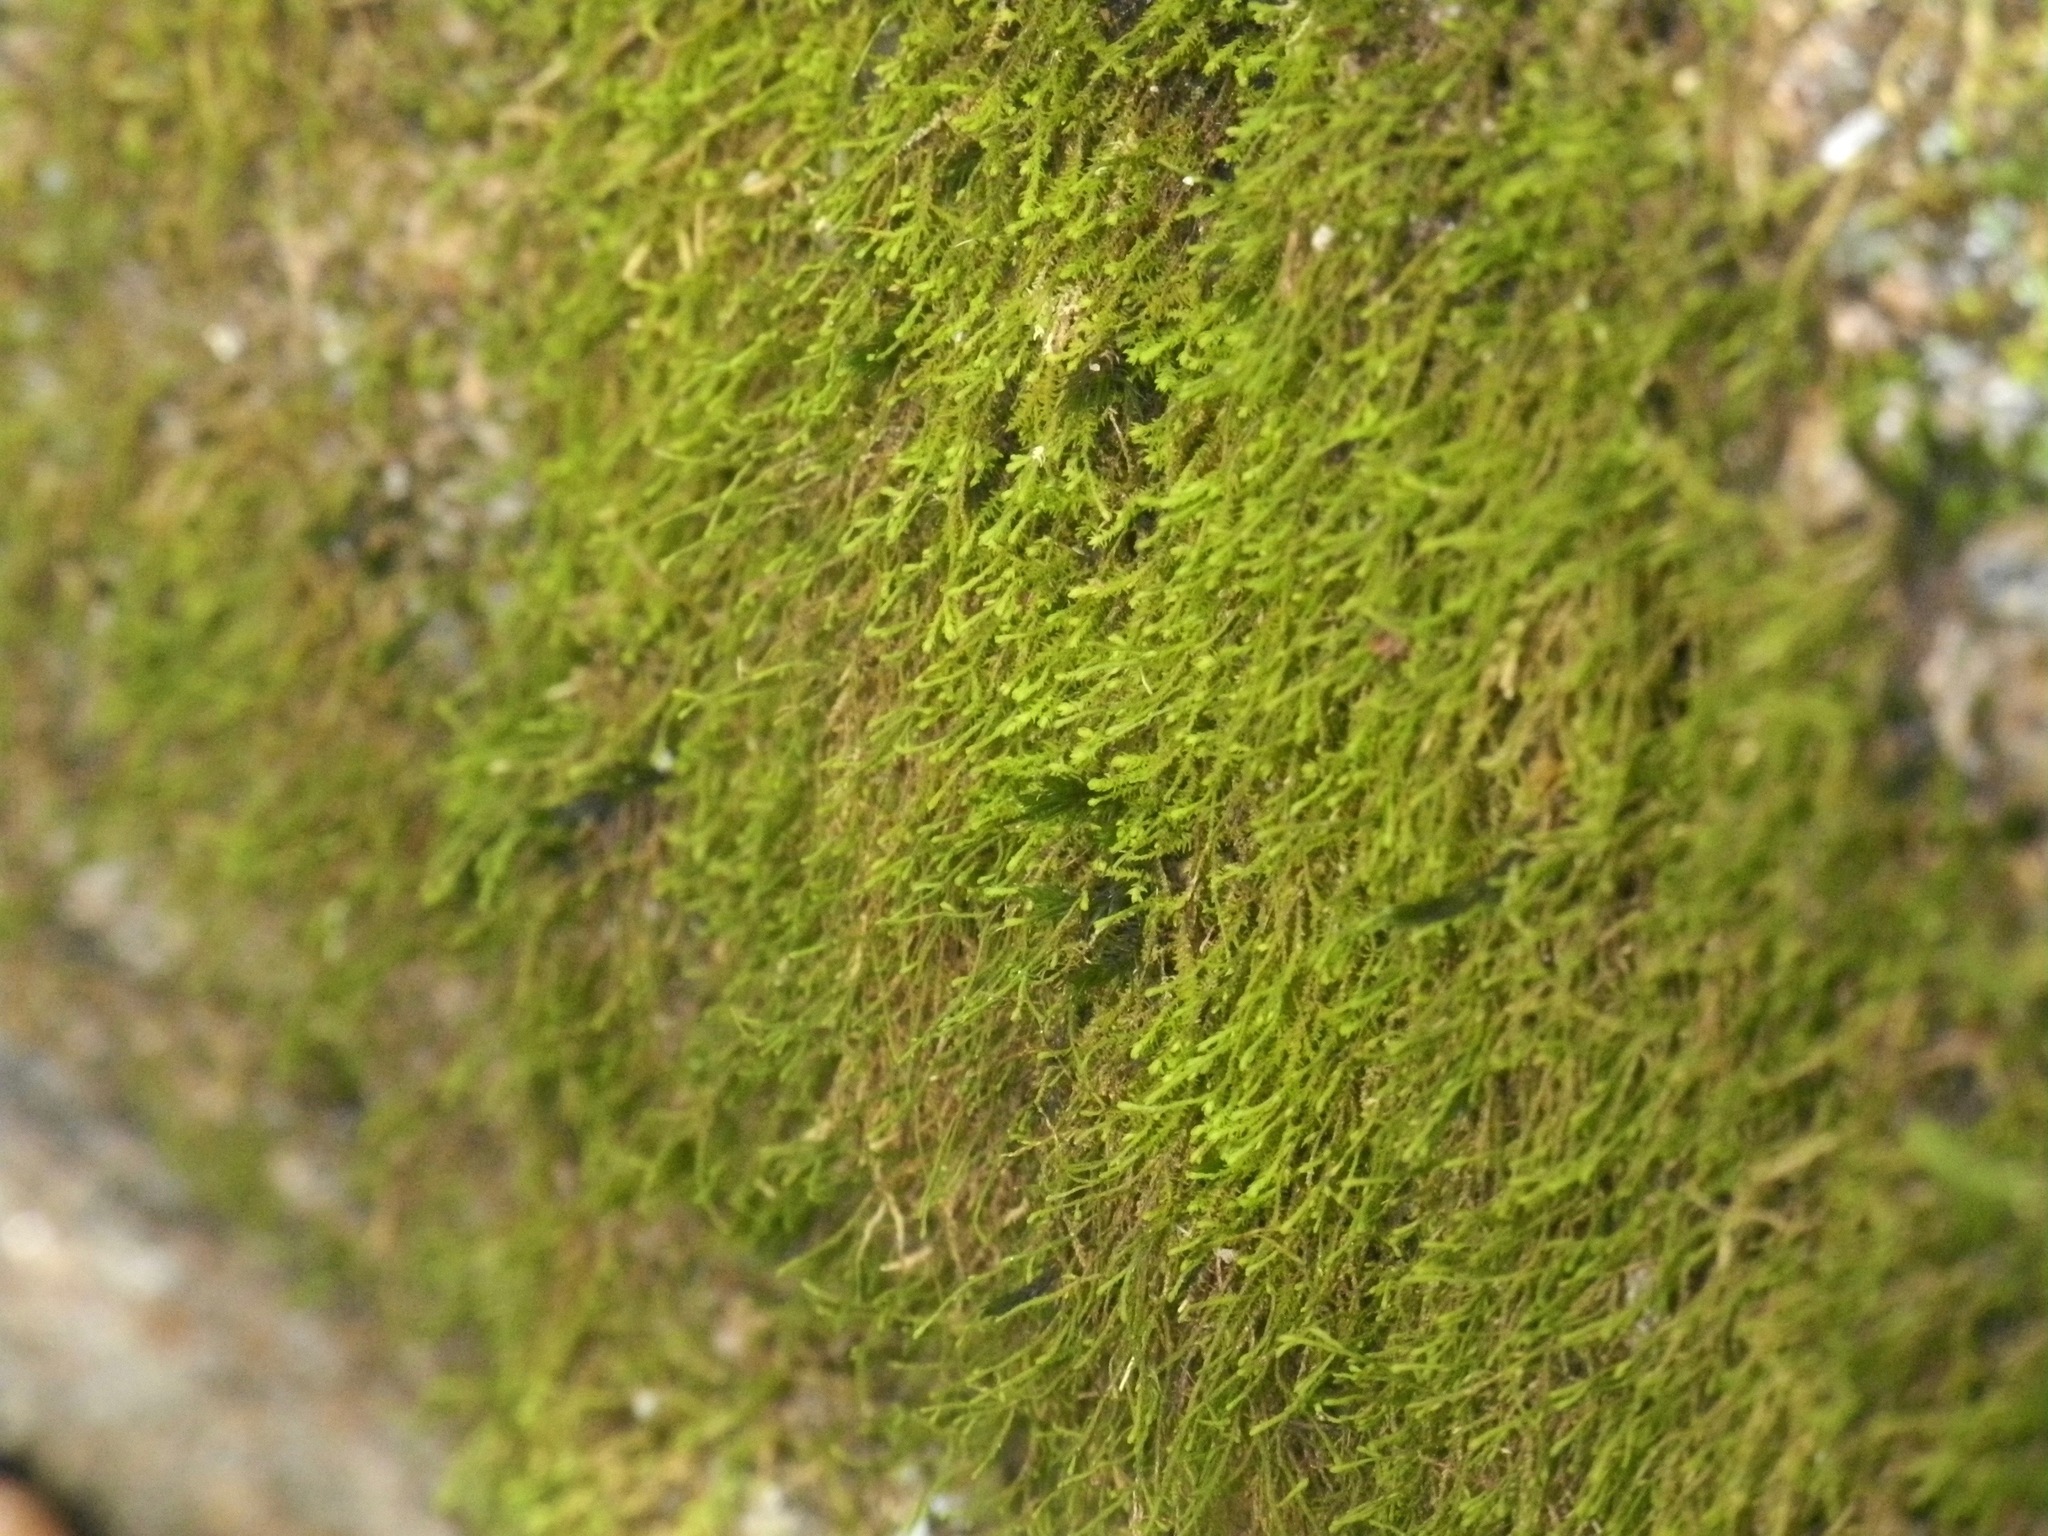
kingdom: Plantae
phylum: Bryophyta
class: Bryopsida
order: Hypnales
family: Anomodontaceae
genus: Haplohymenium
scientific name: Haplohymenium triste
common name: Fragile anomodon
